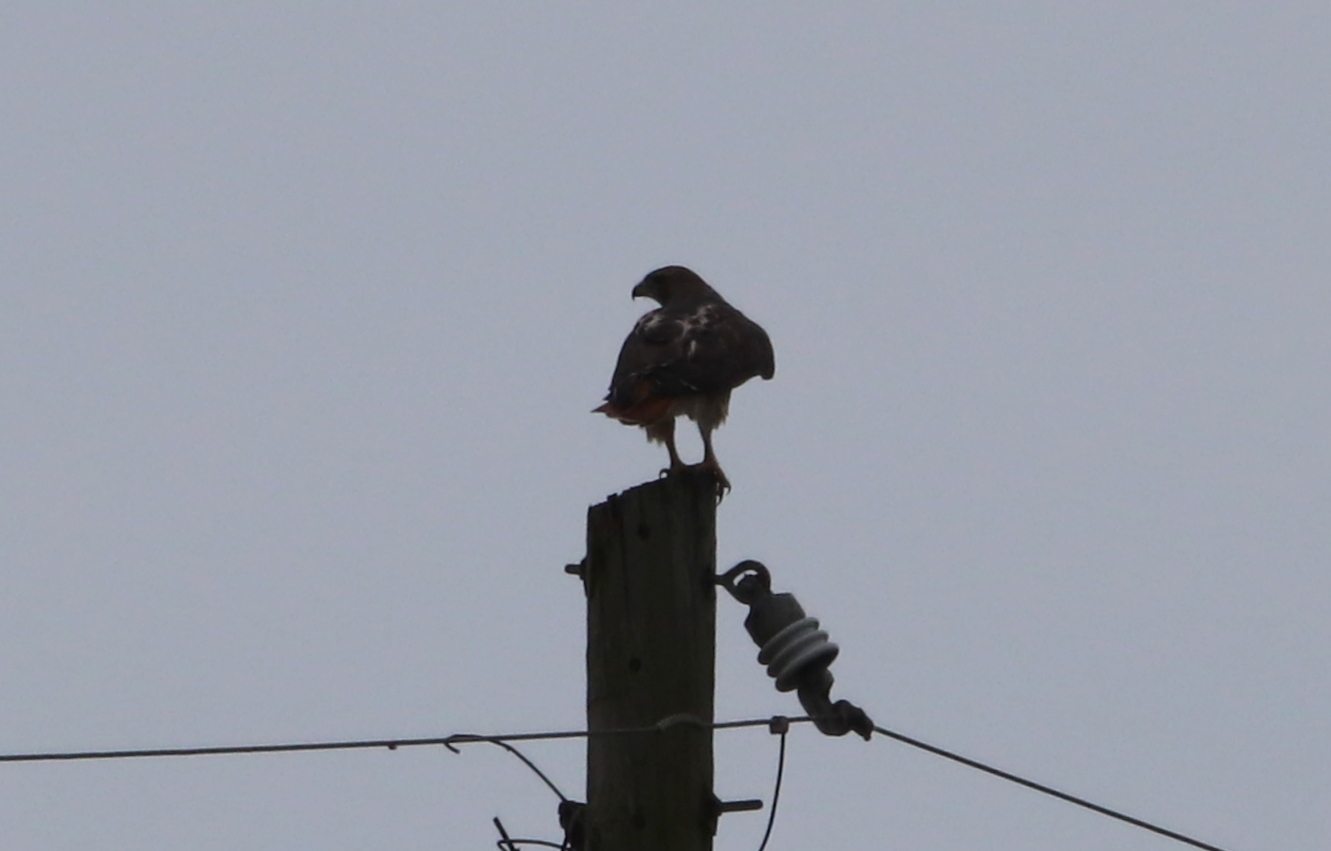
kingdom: Animalia
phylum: Chordata
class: Aves
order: Accipitriformes
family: Accipitridae
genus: Buteo
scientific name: Buteo jamaicensis
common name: Red-tailed hawk
